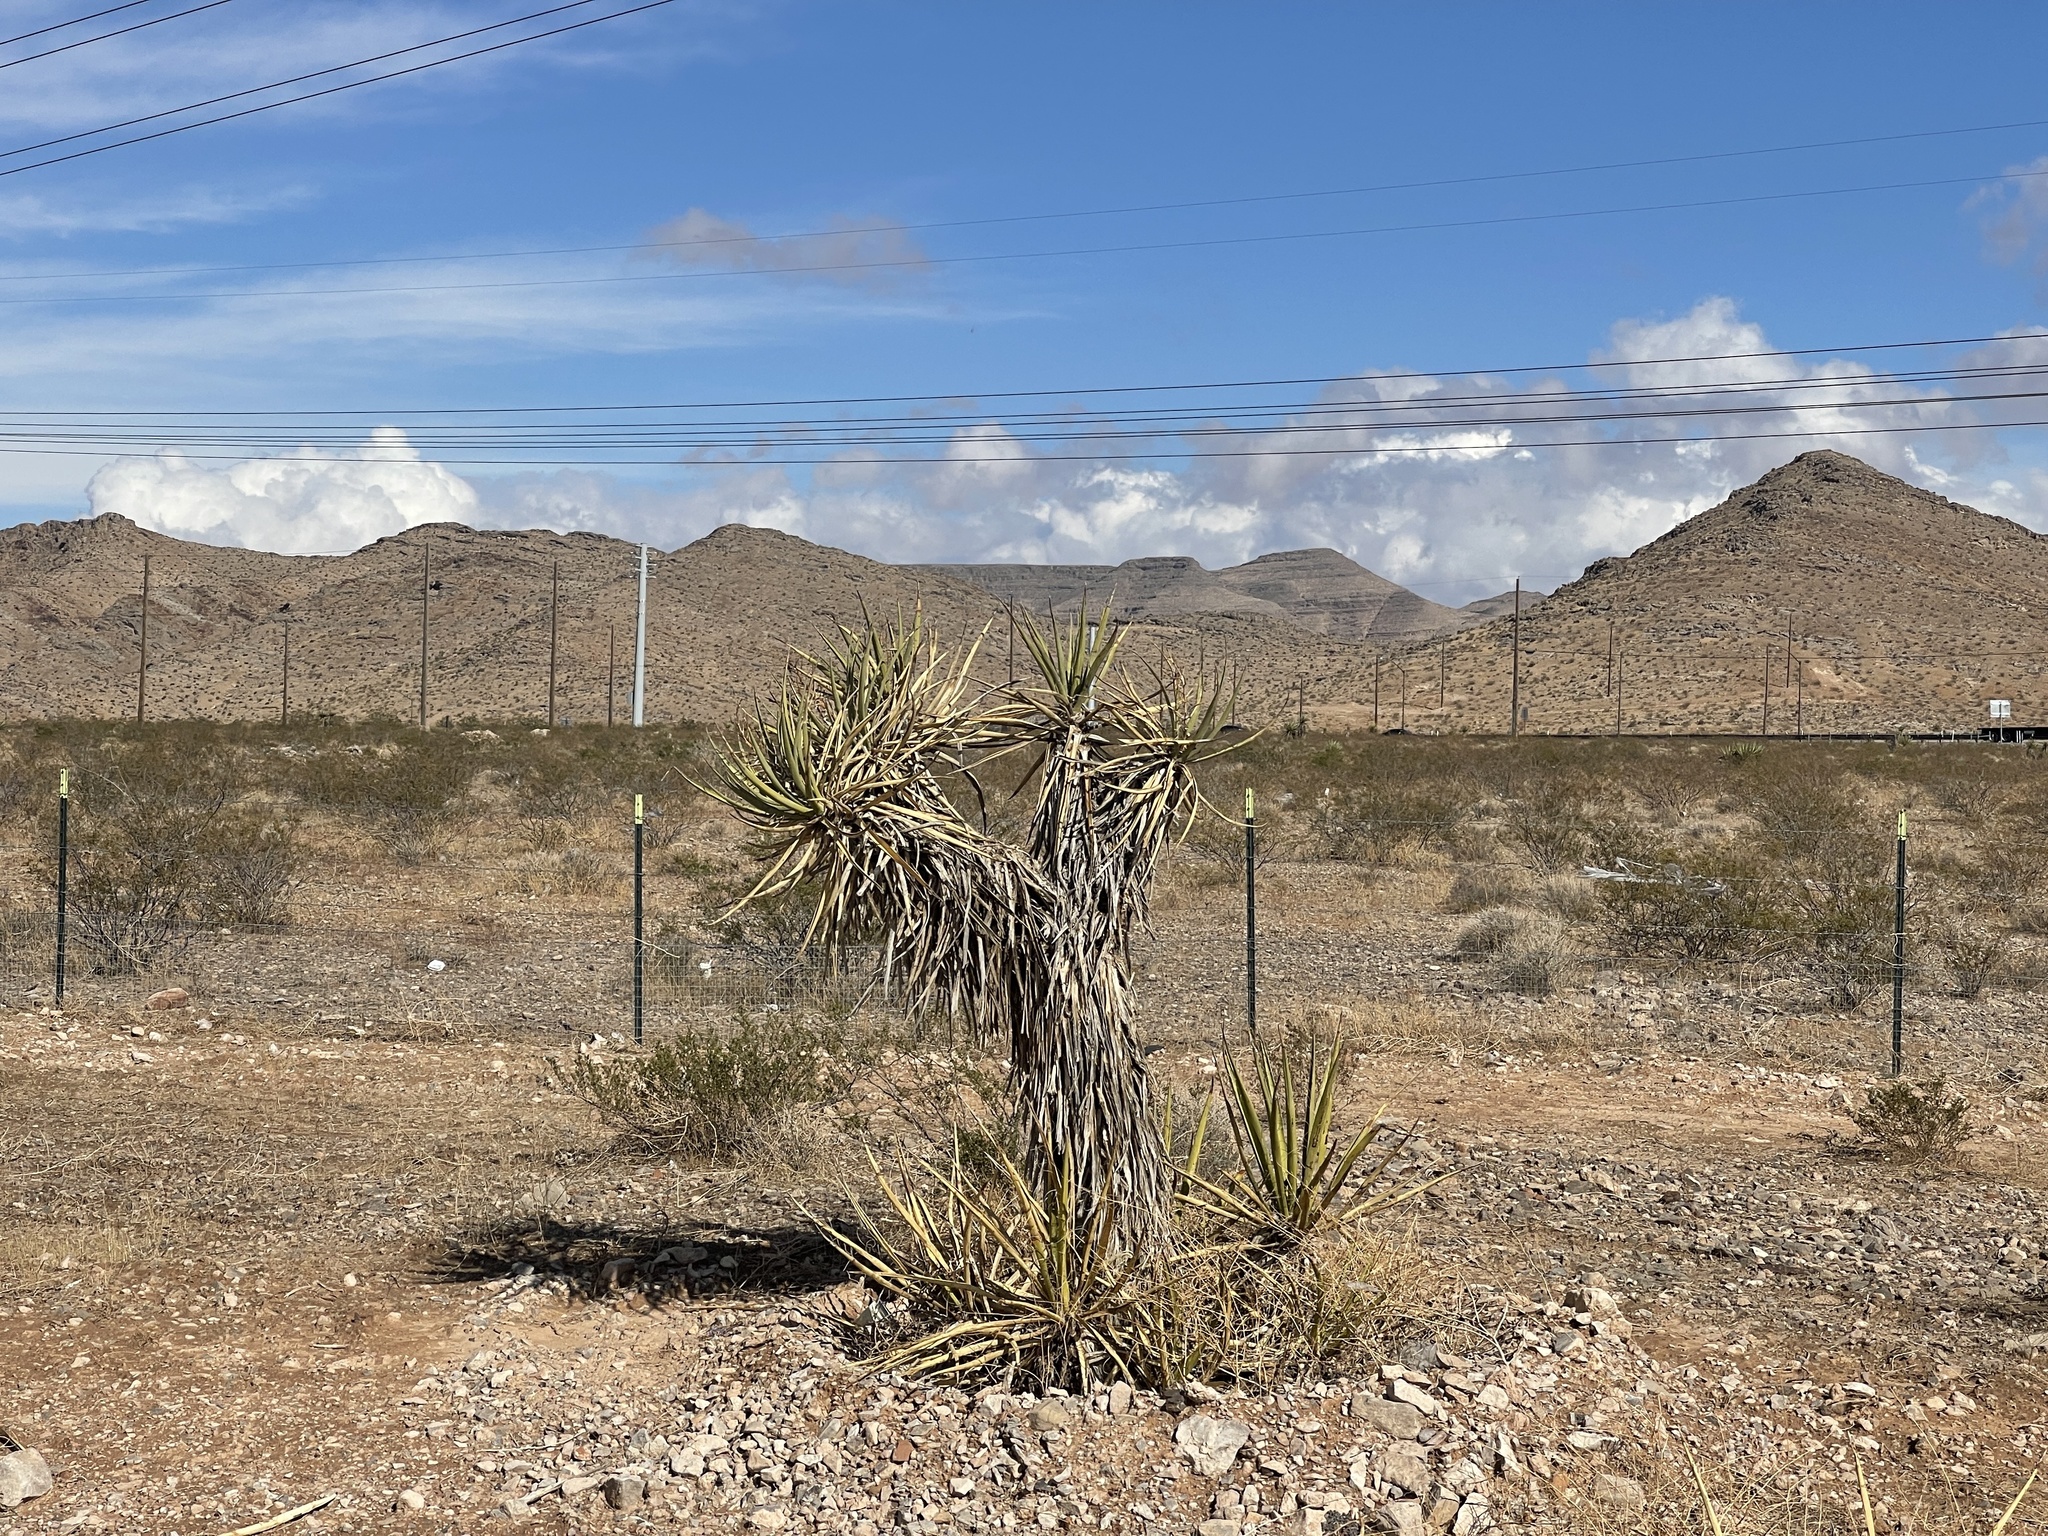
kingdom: Plantae
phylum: Tracheophyta
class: Liliopsida
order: Asparagales
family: Asparagaceae
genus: Yucca
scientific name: Yucca schidigera
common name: Mojave yucca
